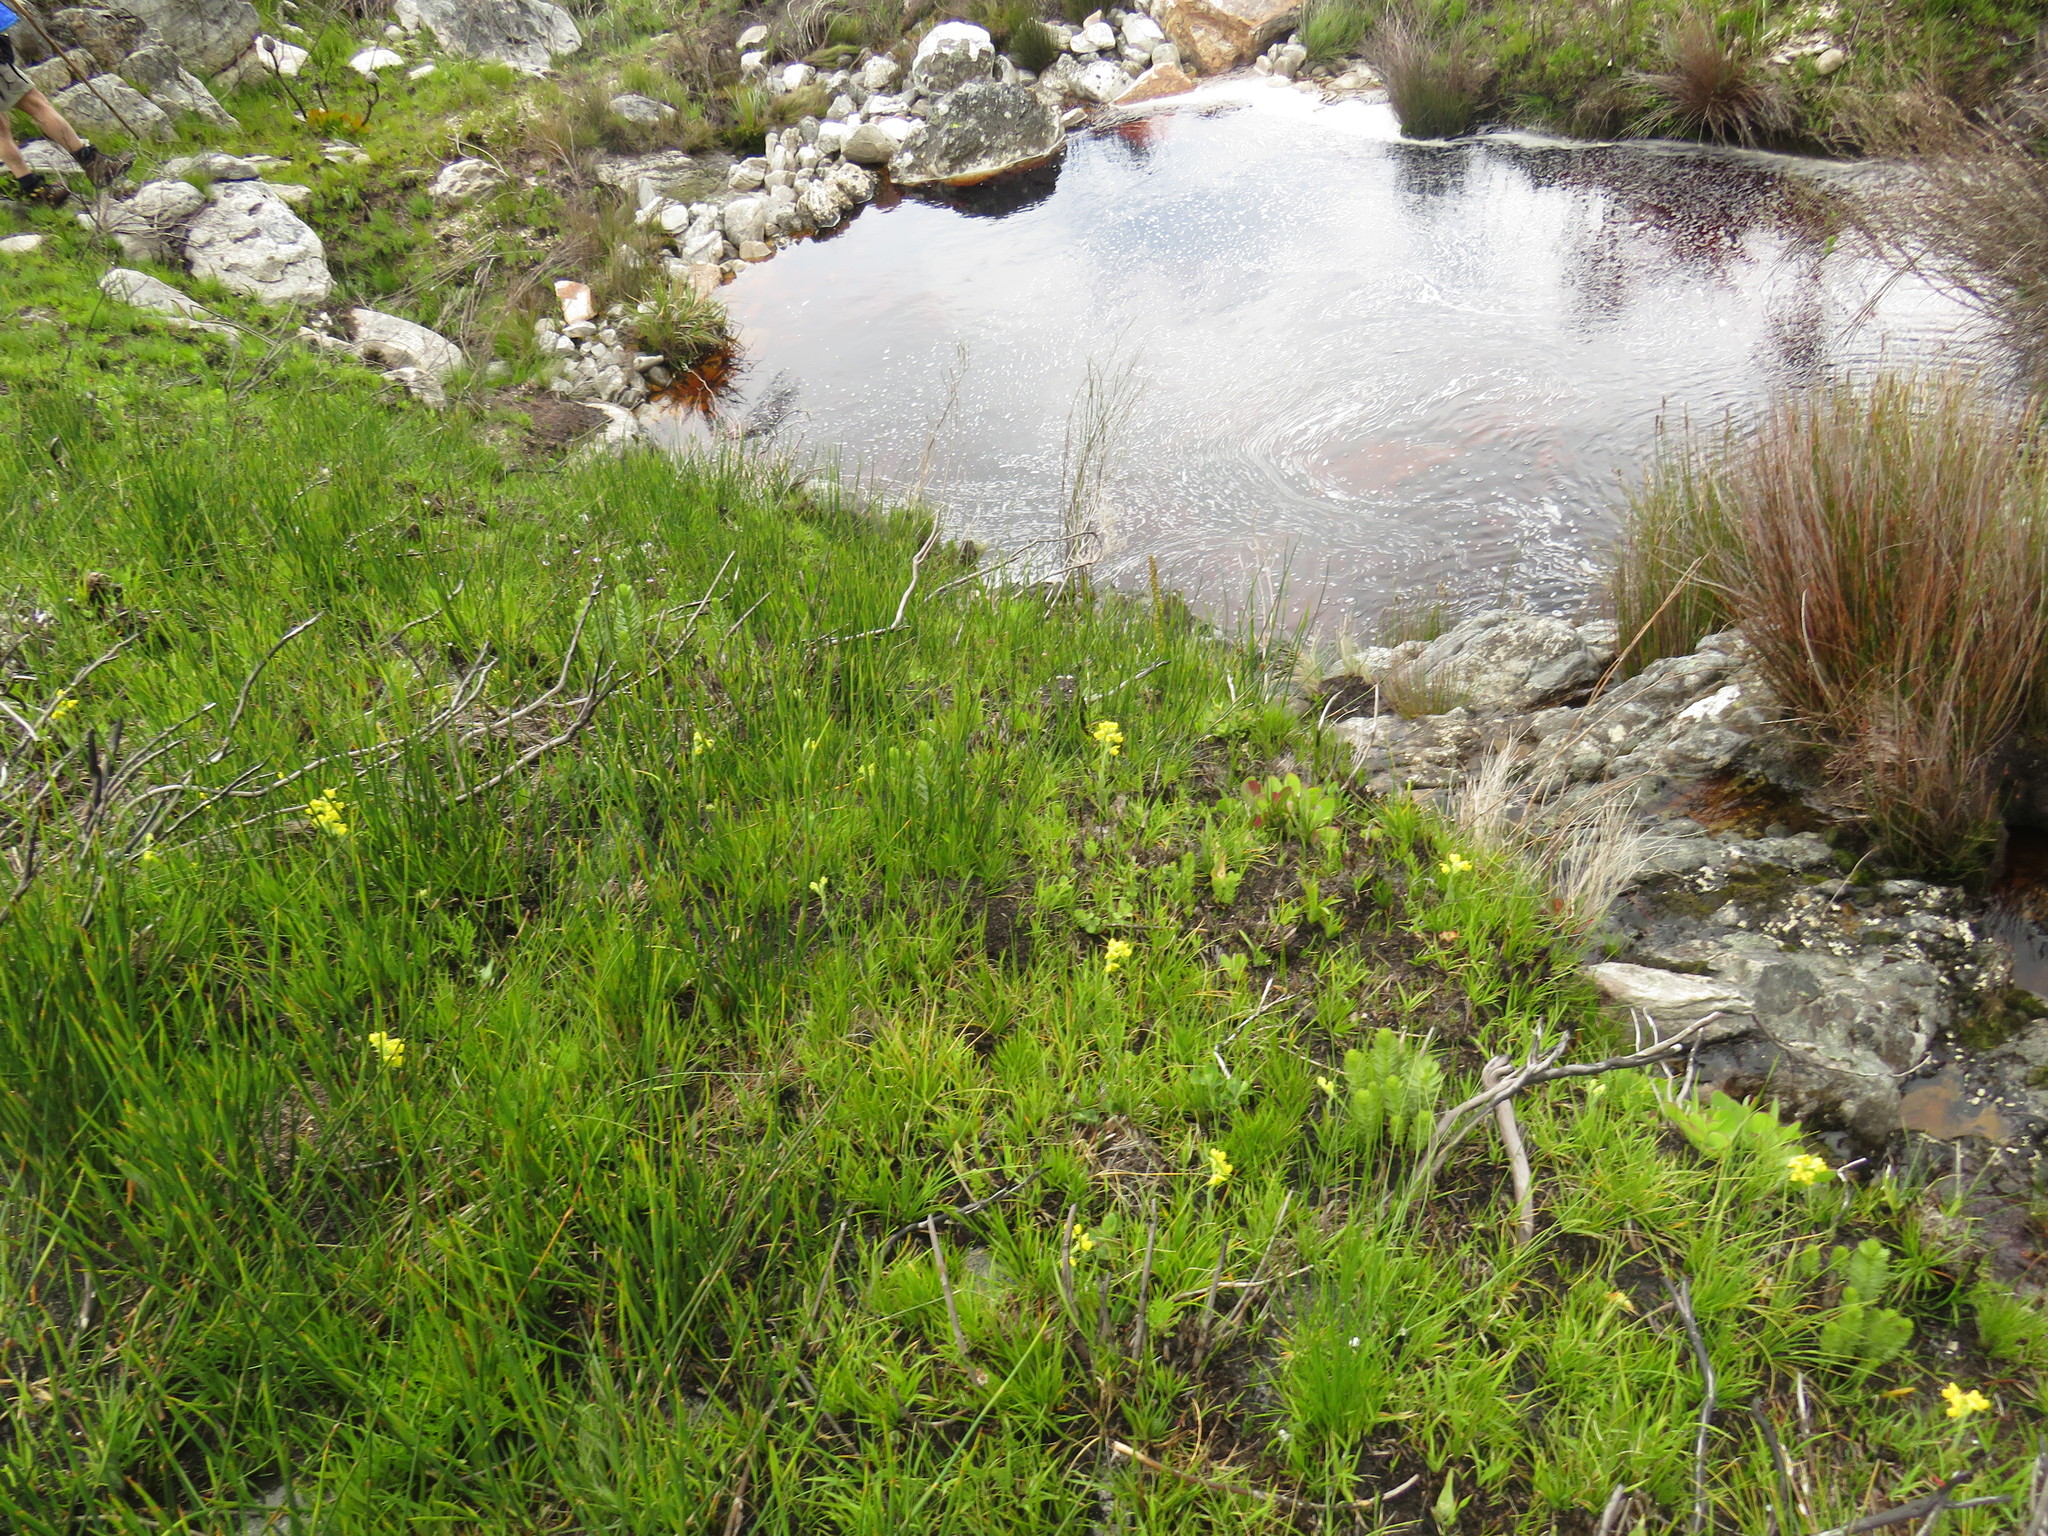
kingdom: Plantae
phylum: Tracheophyta
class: Liliopsida
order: Asparagales
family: Orchidaceae
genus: Pterygodium
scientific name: Pterygodium acutifolium
